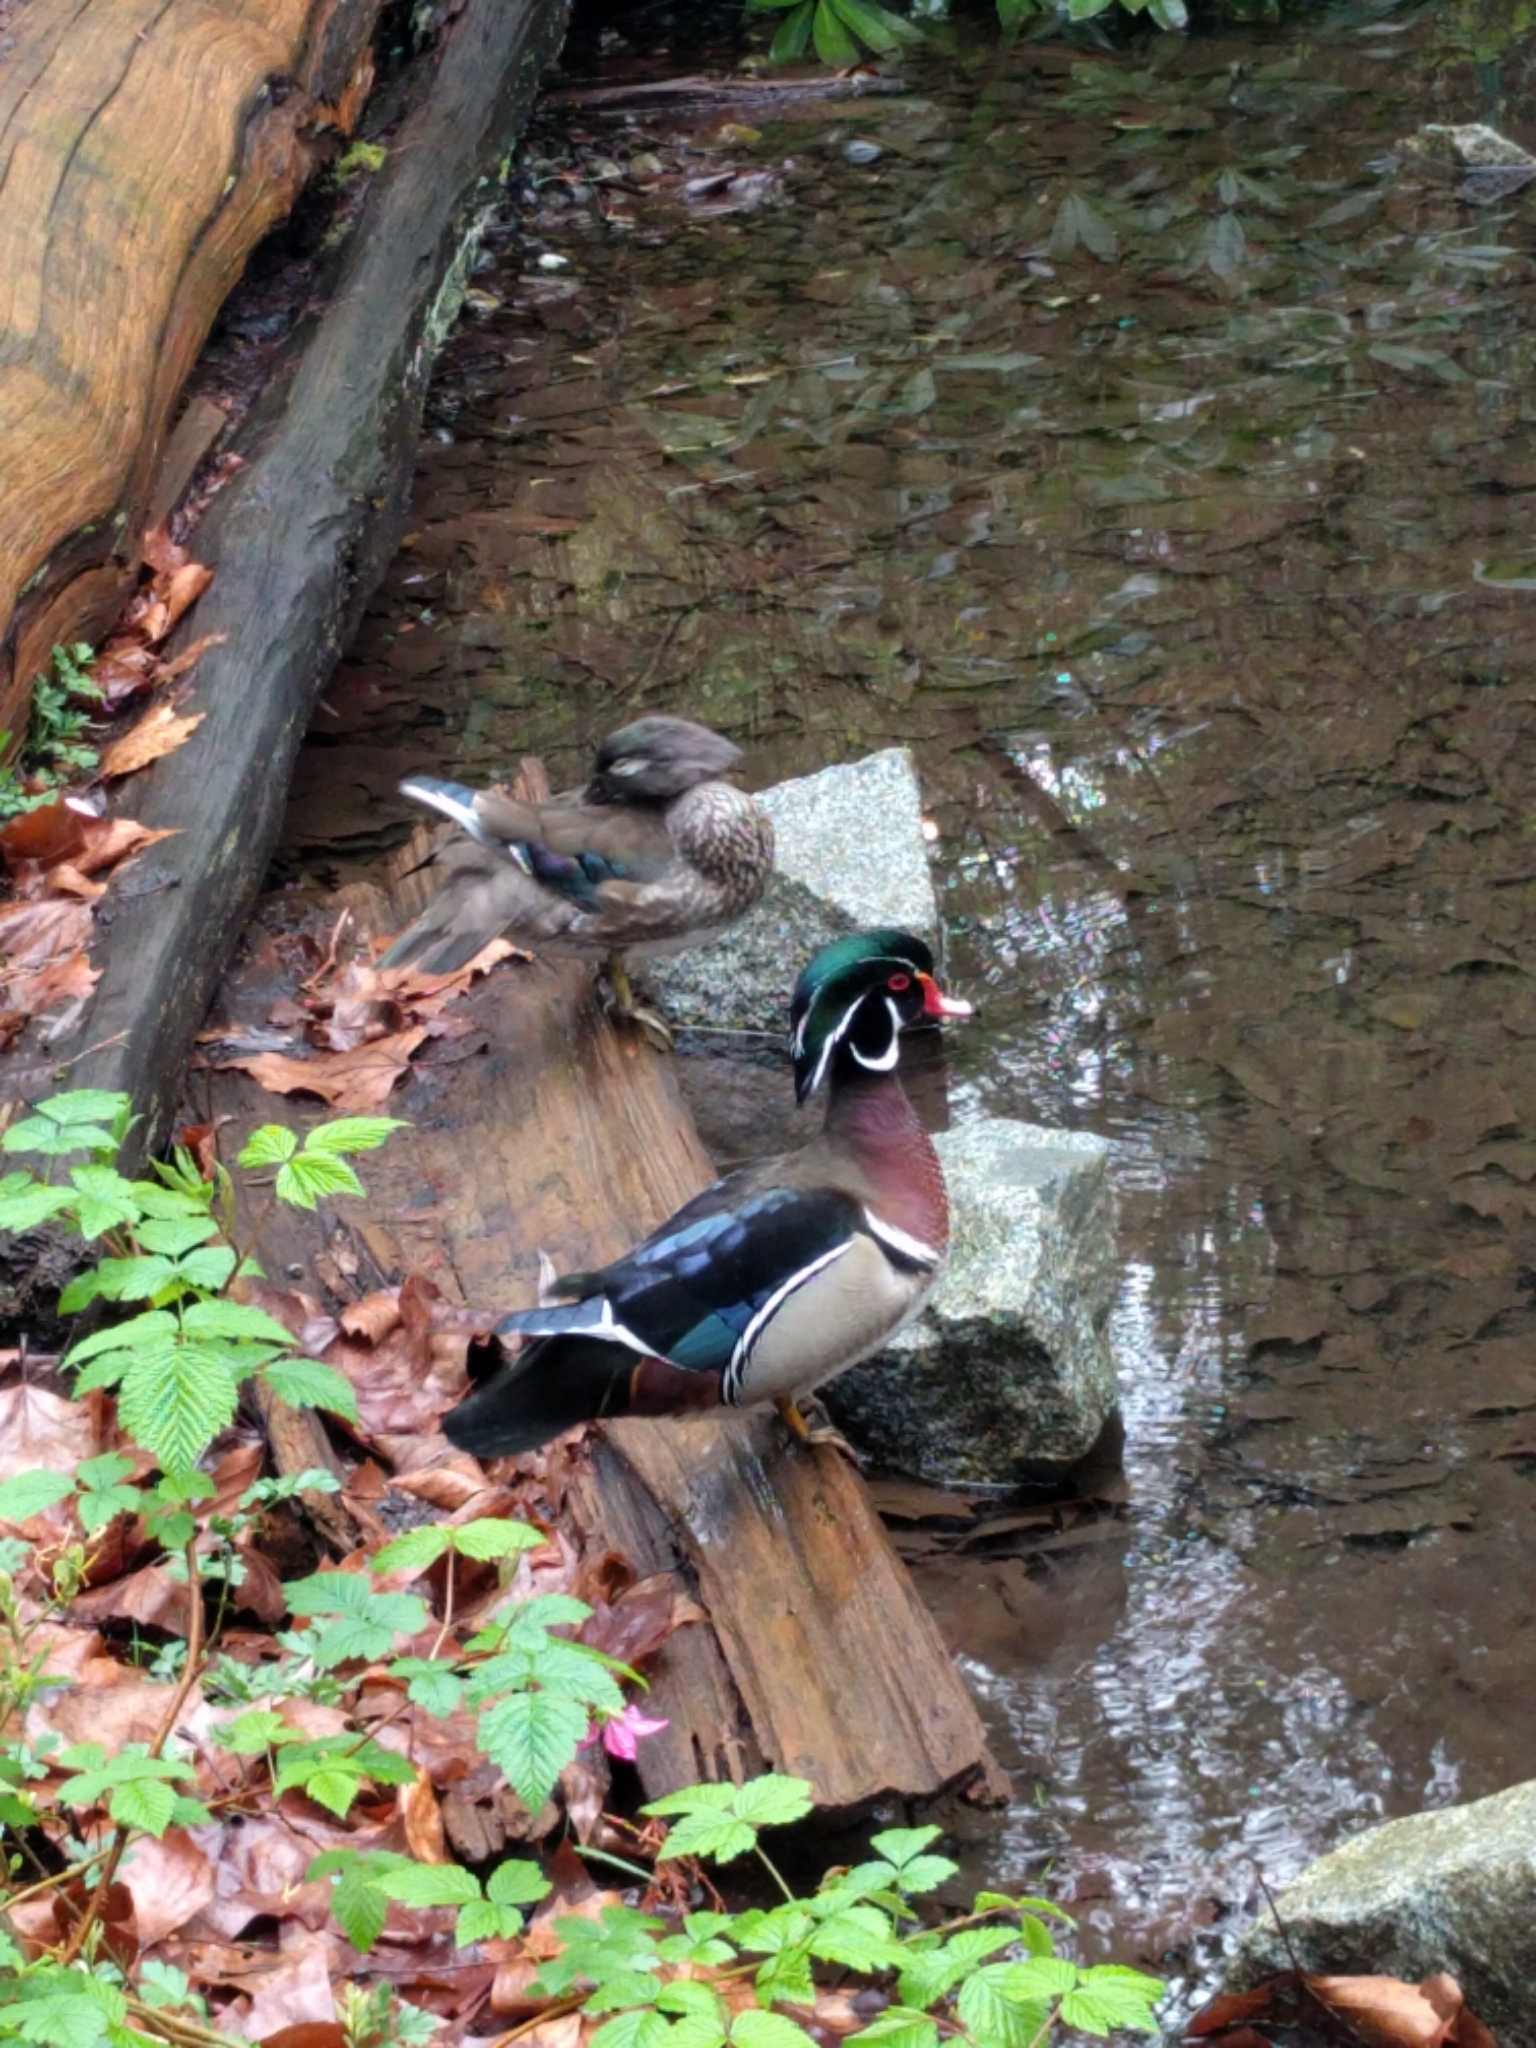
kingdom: Animalia
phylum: Chordata
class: Aves
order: Anseriformes
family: Anatidae
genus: Aix
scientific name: Aix sponsa
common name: Wood duck
